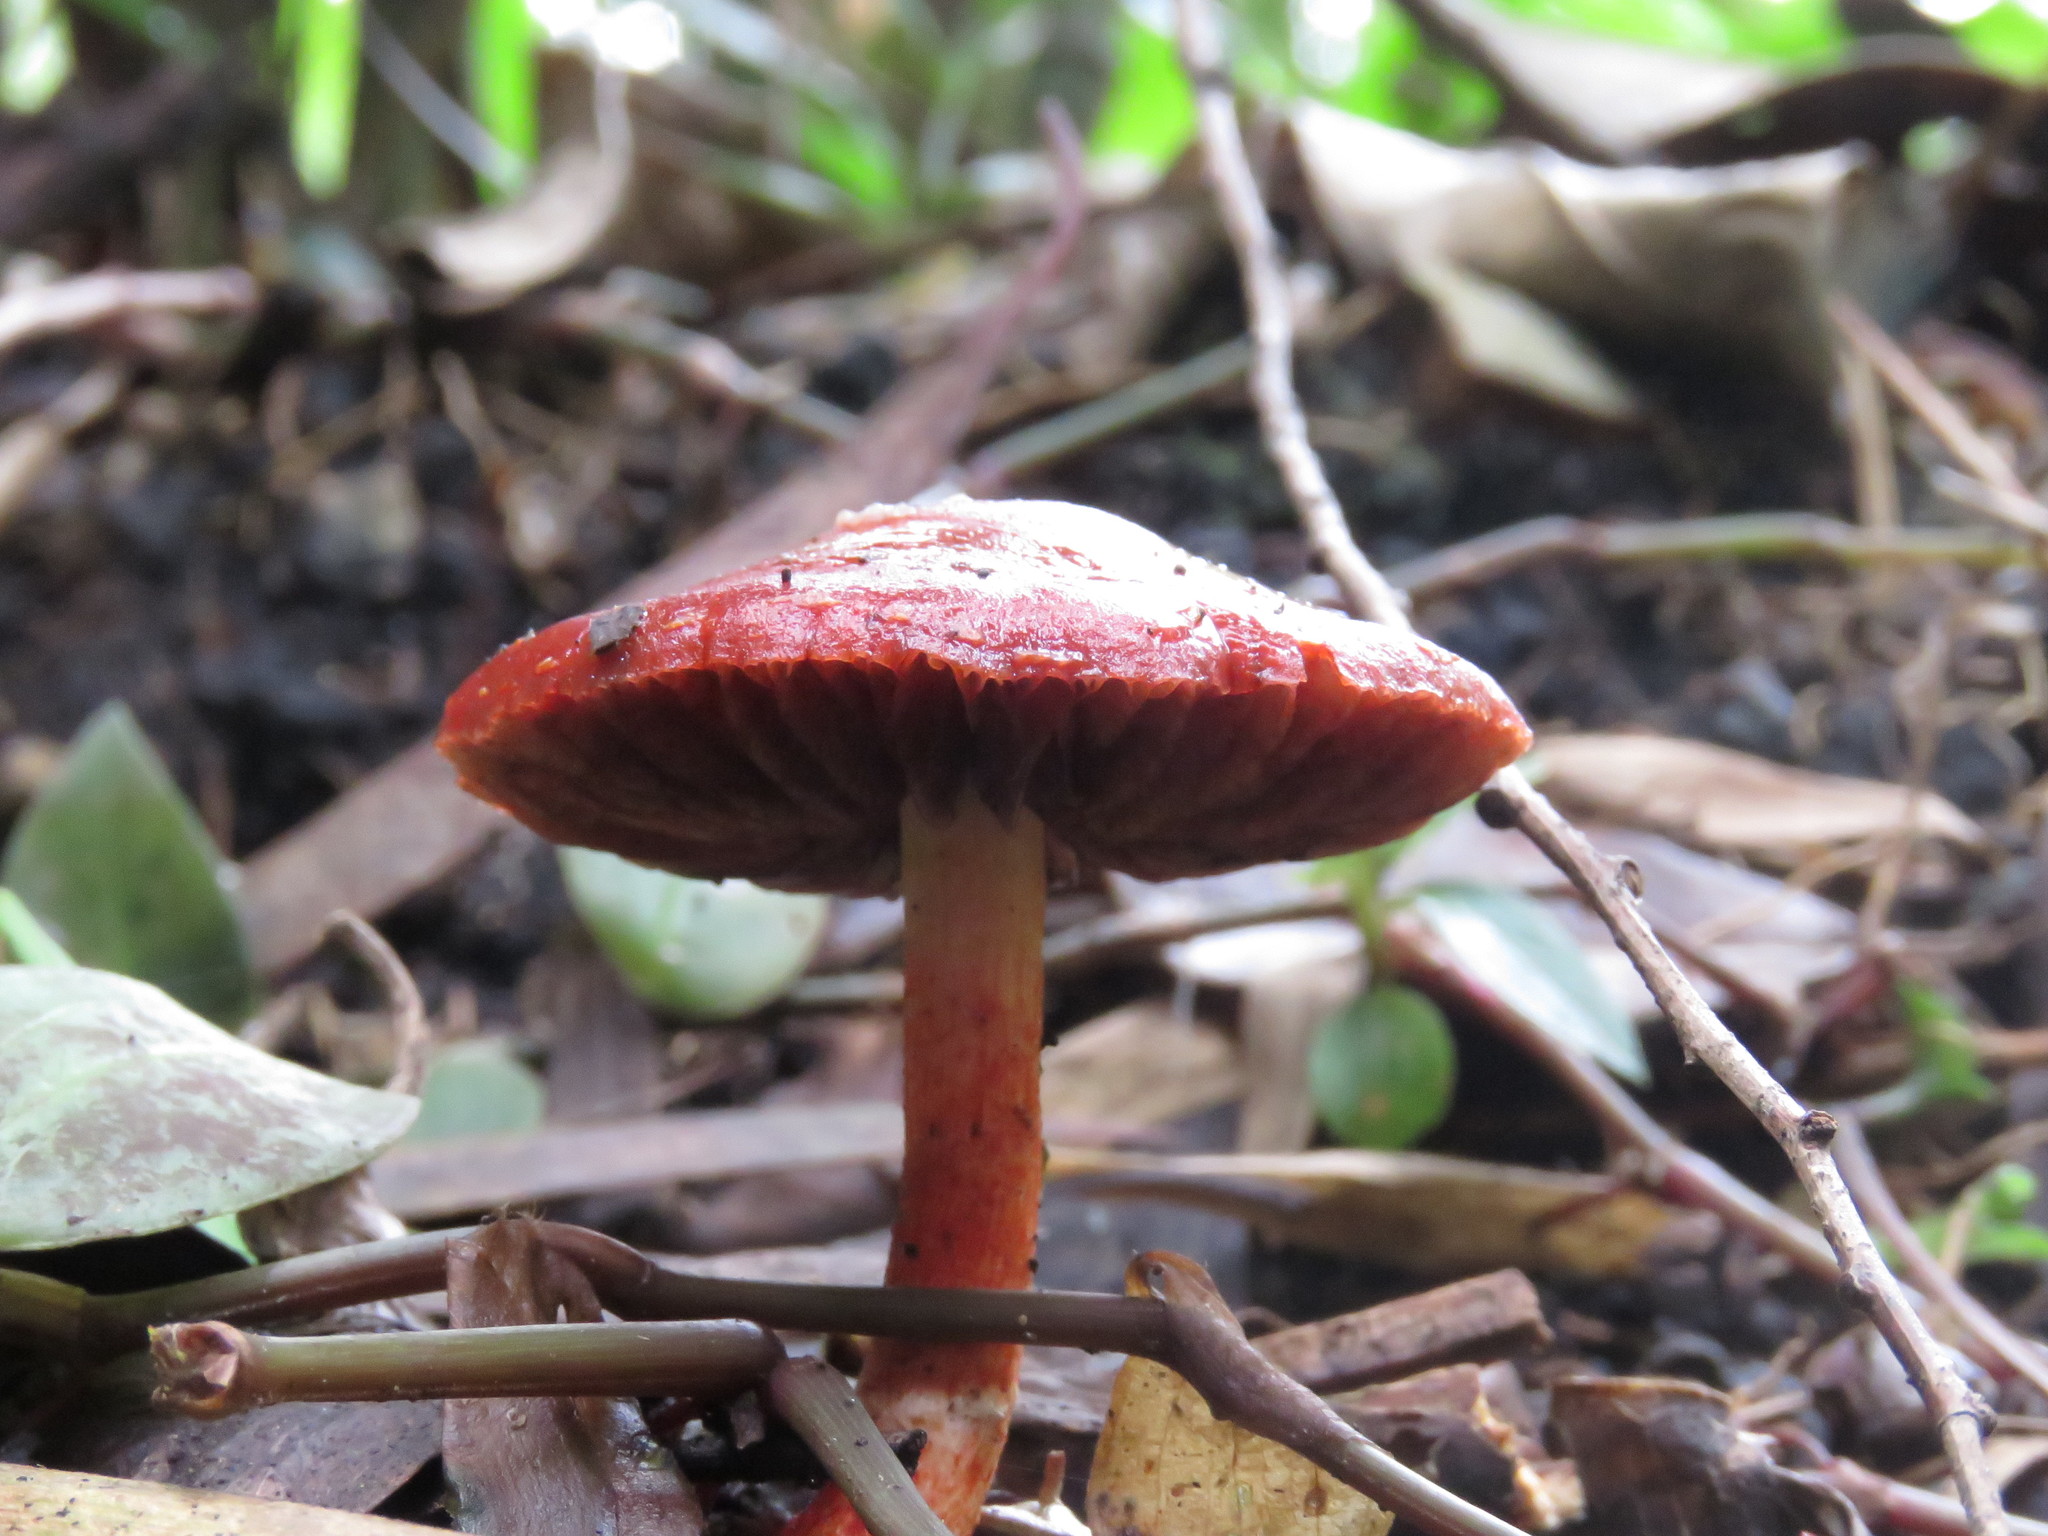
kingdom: Fungi
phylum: Basidiomycota
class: Agaricomycetes
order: Agaricales
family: Strophariaceae
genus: Leratiomyces
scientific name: Leratiomyces ceres
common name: Redlead roundhead
